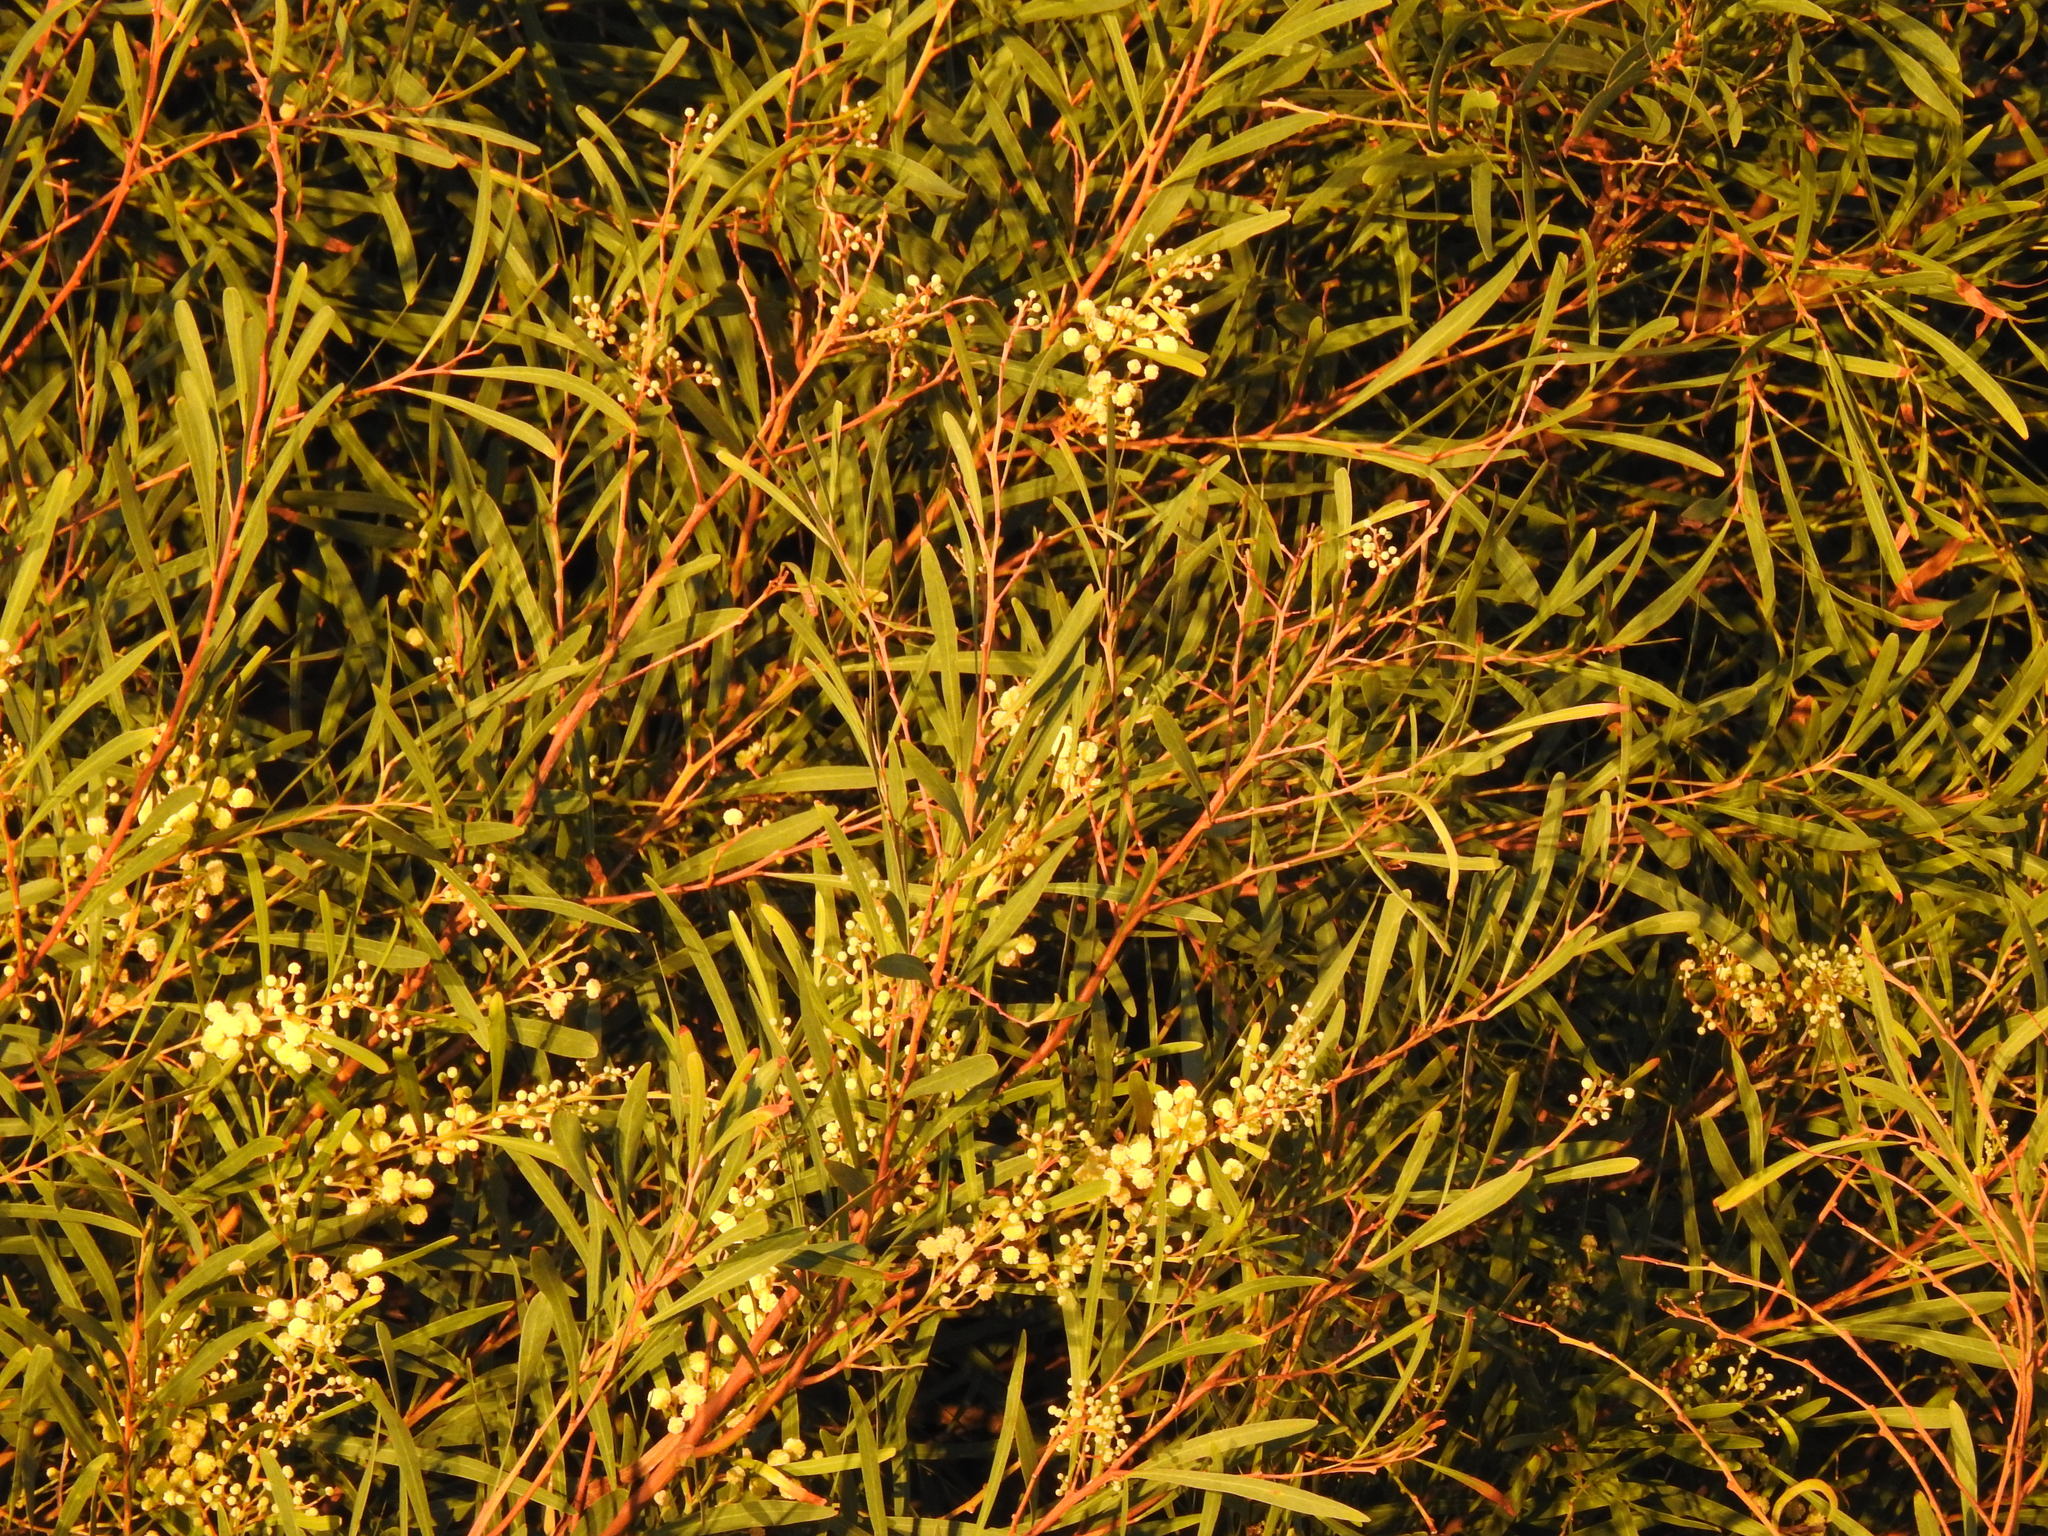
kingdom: Plantae
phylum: Tracheophyta
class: Magnoliopsida
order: Fabales
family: Fabaceae
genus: Acacia
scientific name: Acacia provincialis
